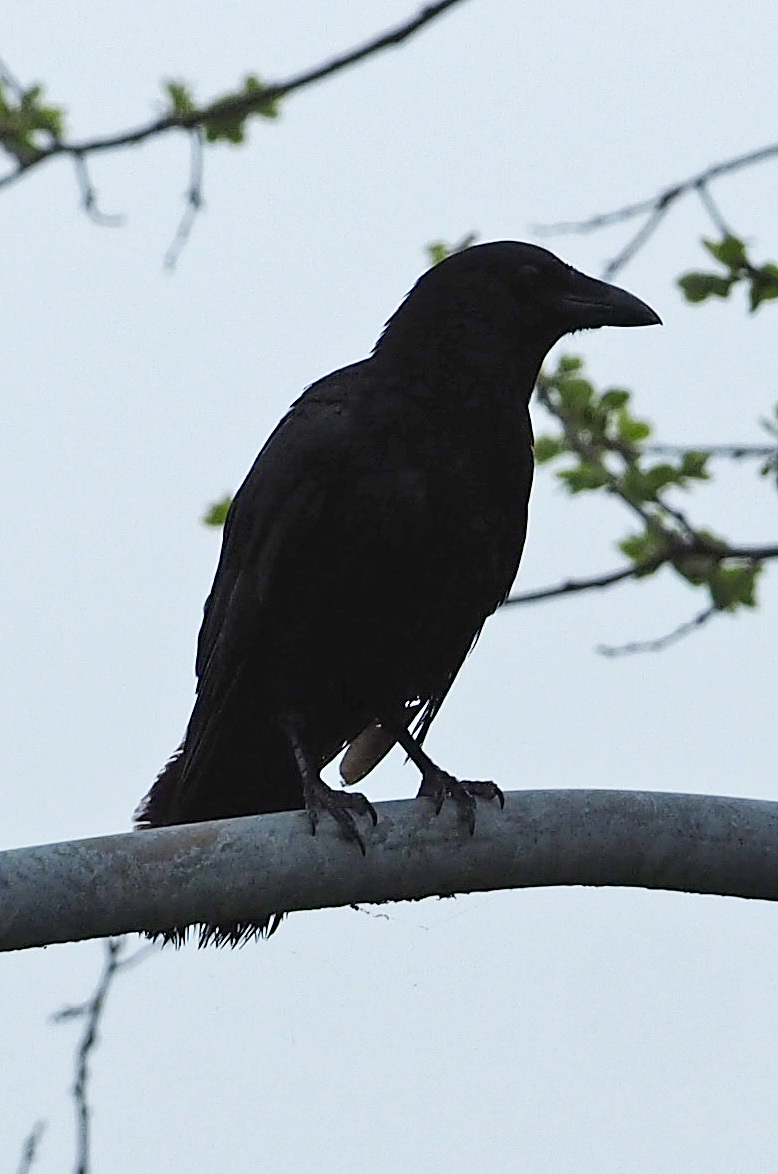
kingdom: Animalia
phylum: Chordata
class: Aves
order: Passeriformes
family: Corvidae
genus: Corvus
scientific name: Corvus ossifragus
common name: Fish crow
